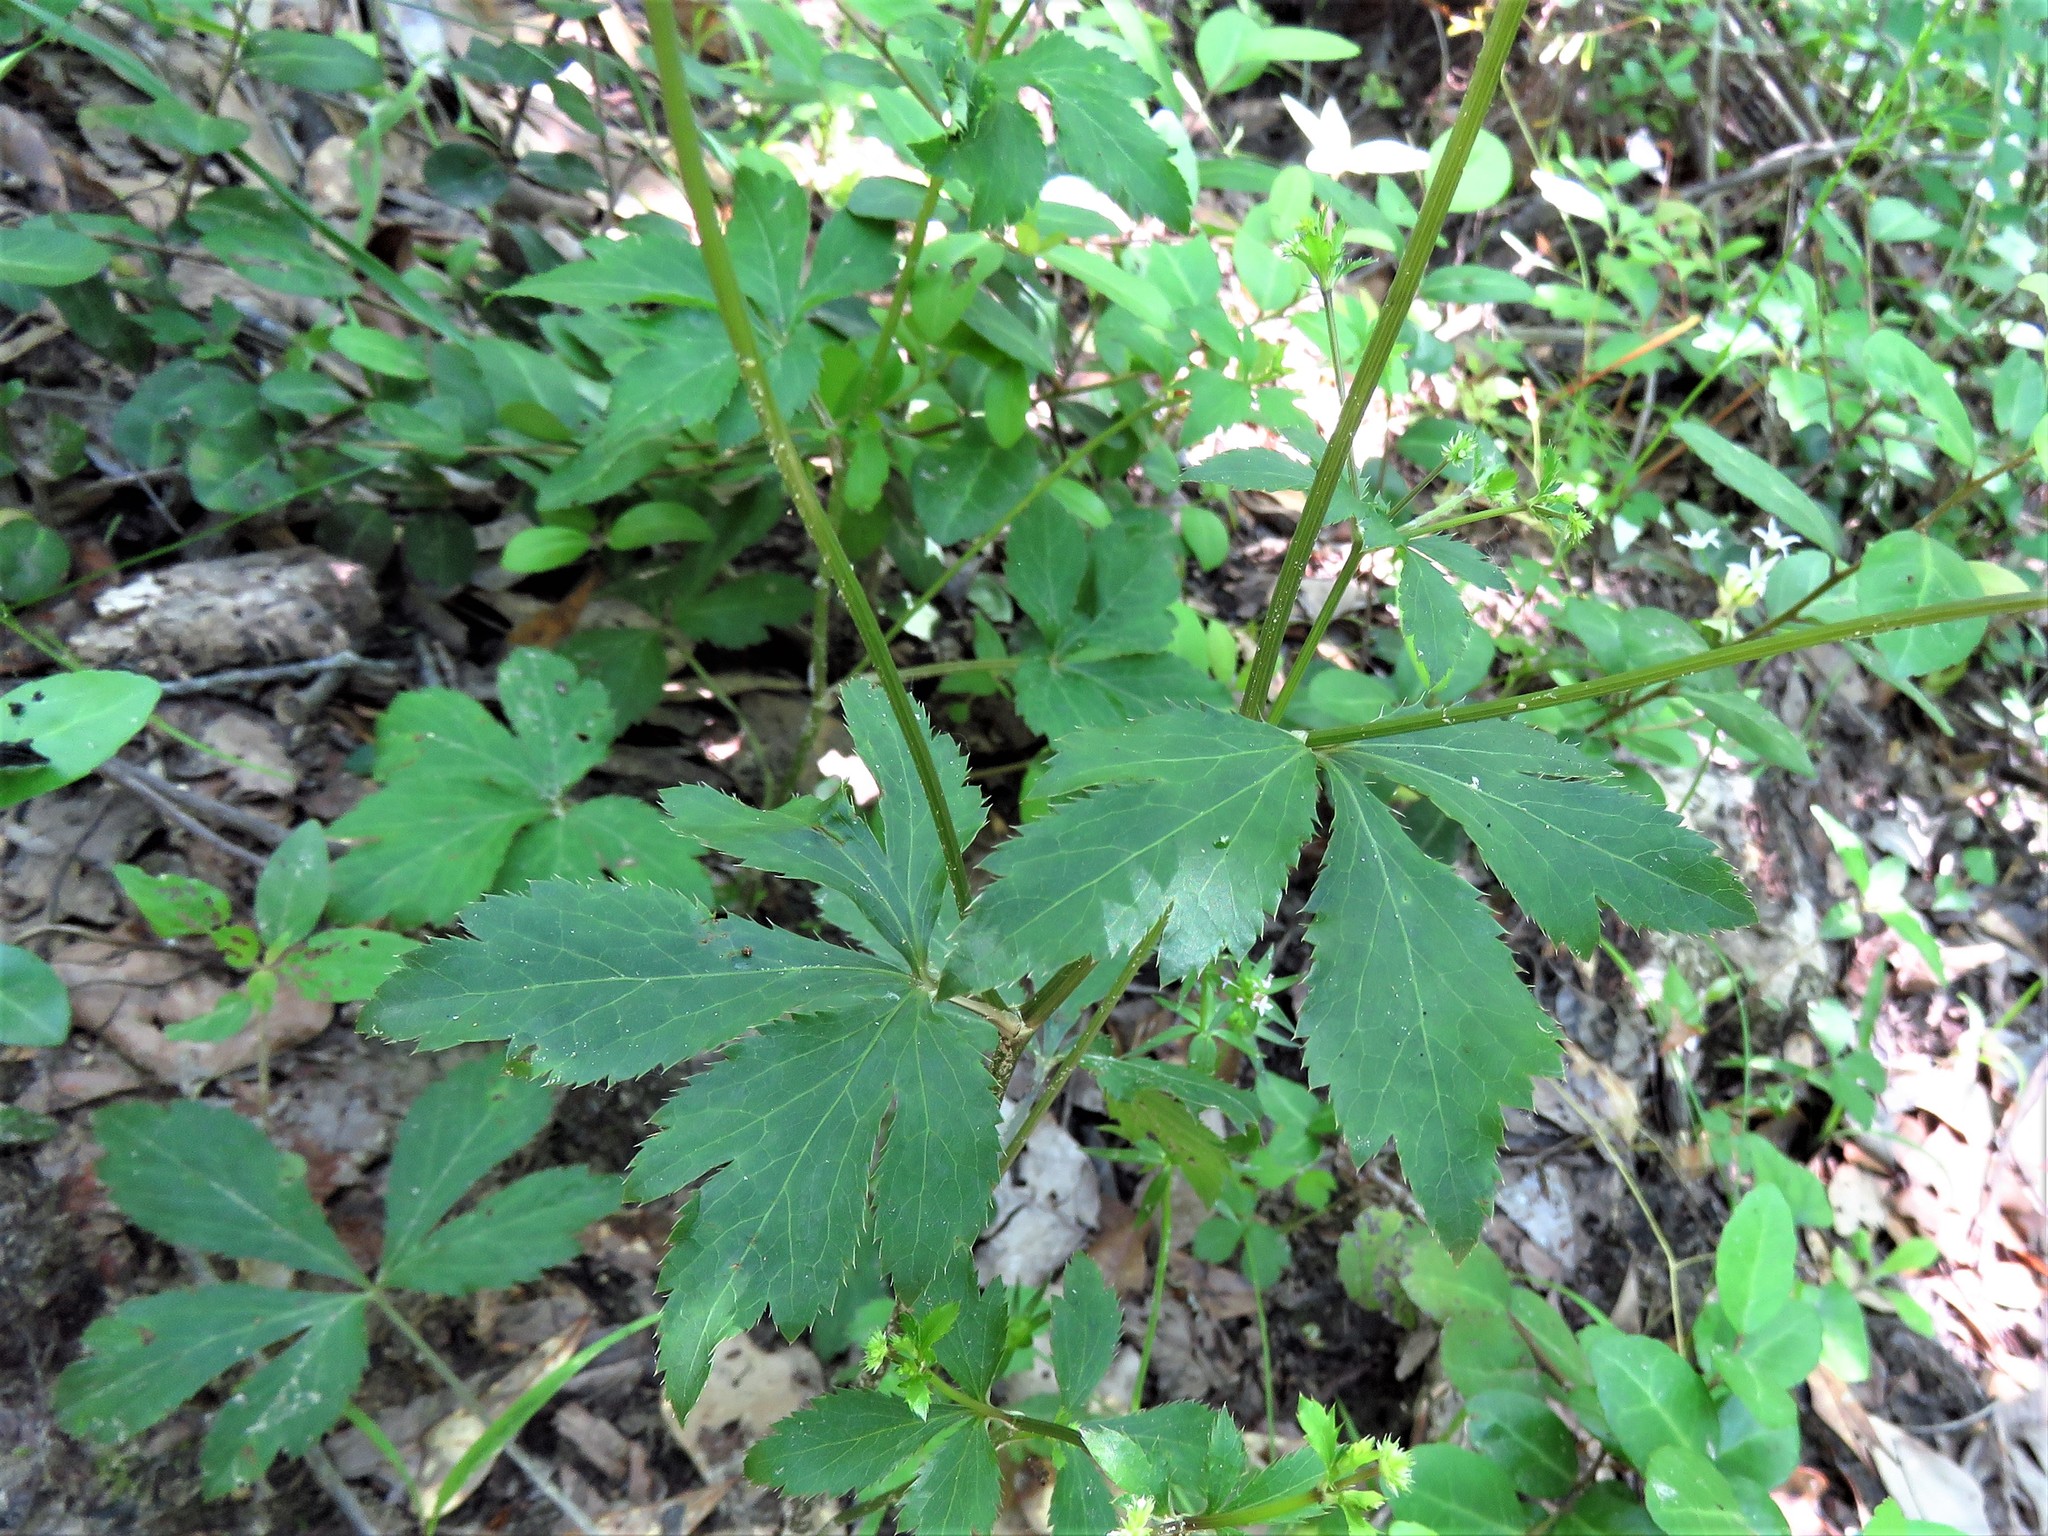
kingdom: Plantae
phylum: Tracheophyta
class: Magnoliopsida
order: Apiales
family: Apiaceae
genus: Sanicula
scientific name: Sanicula canadensis
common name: Canada sanicle
